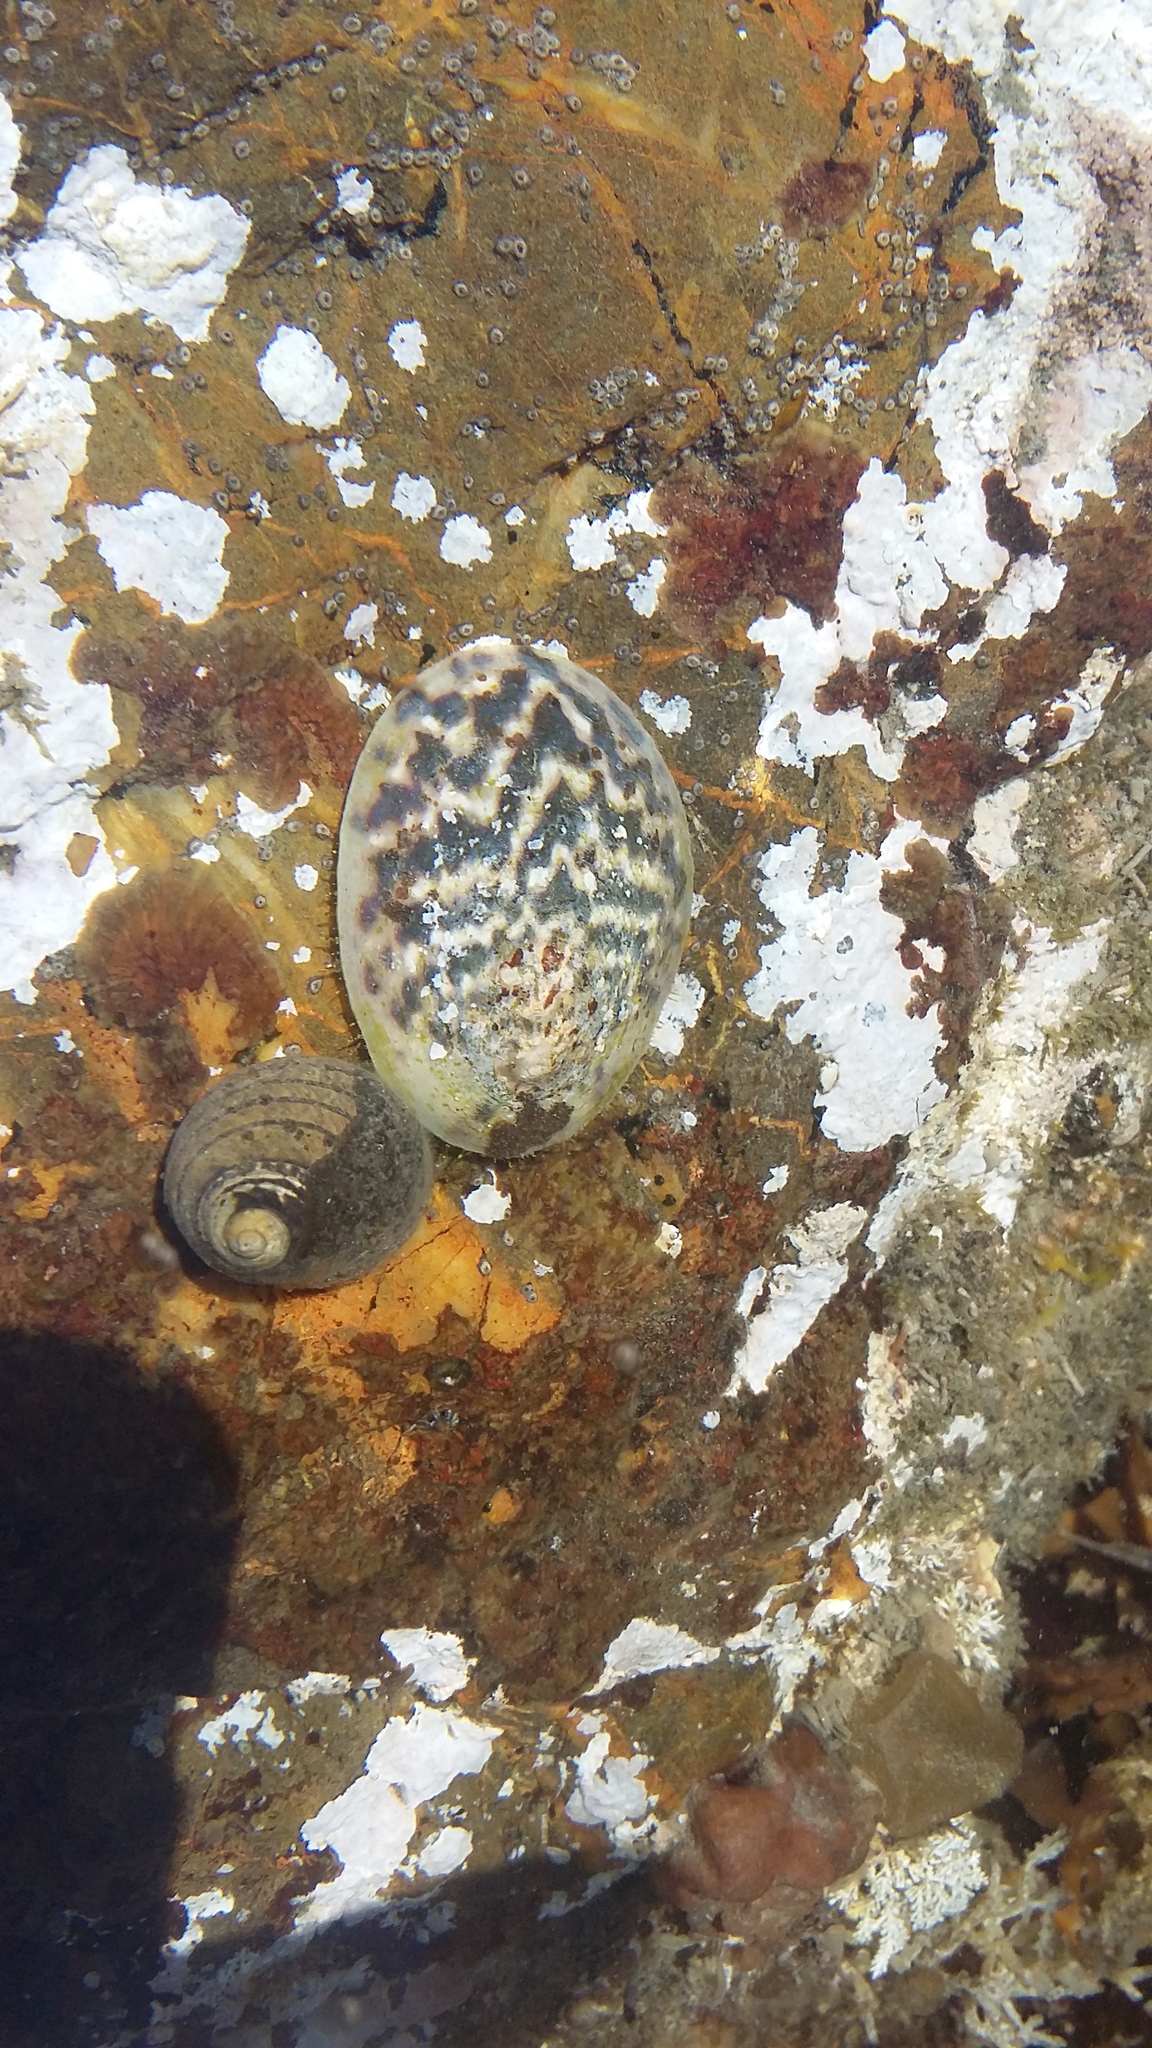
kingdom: Animalia
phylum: Mollusca
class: Gastropoda
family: Nacellidae
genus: Cellana
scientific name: Cellana radians
